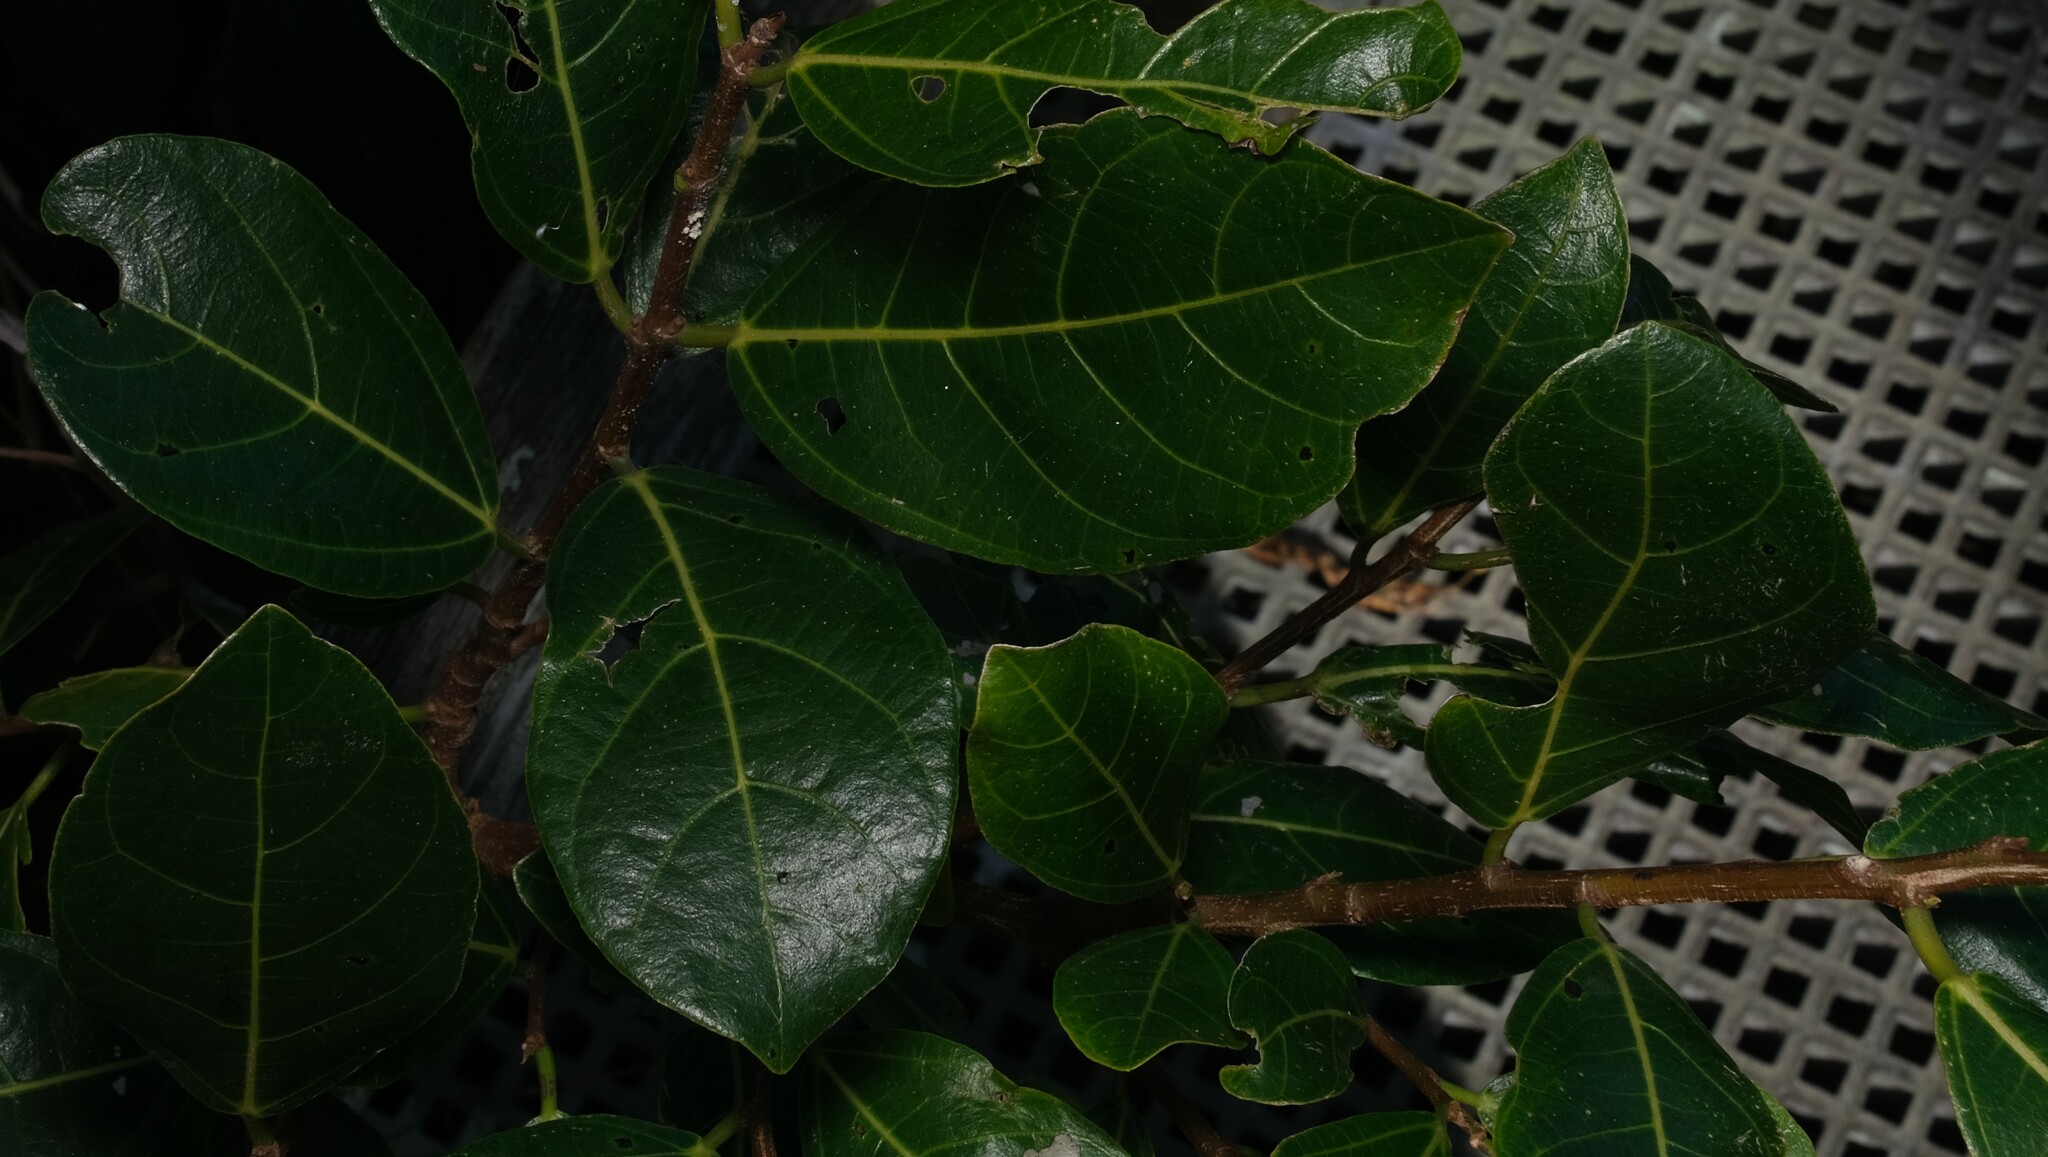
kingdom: Plantae
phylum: Tracheophyta
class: Magnoliopsida
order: Rosales
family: Moraceae
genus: Ficus
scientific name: Ficus fraseri
